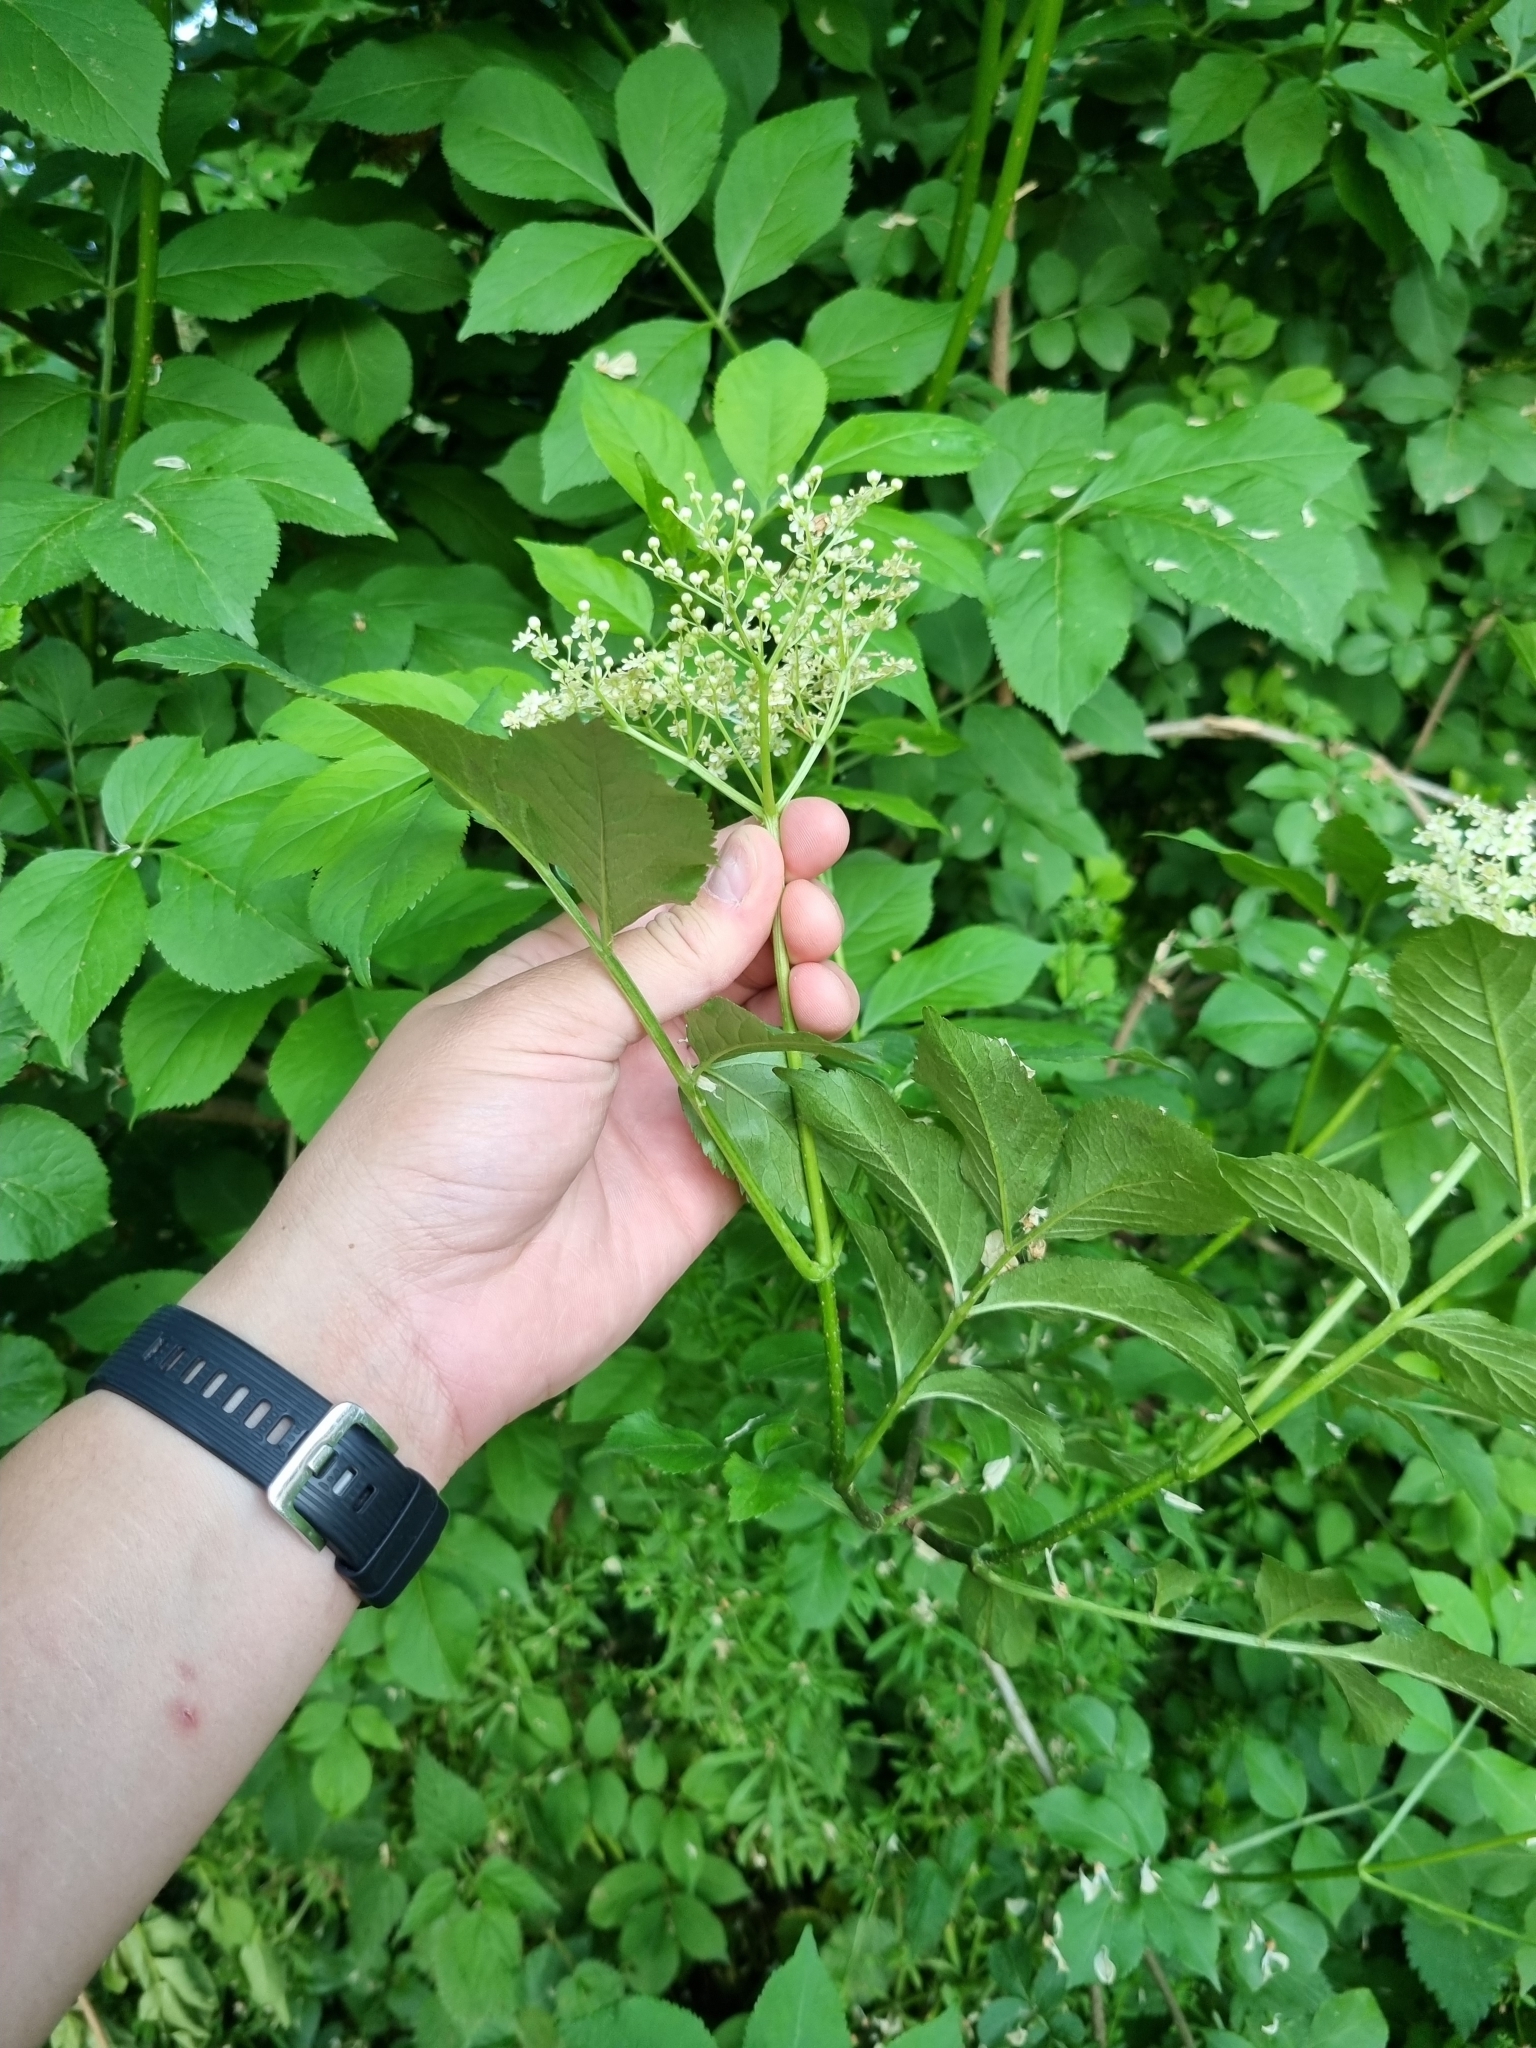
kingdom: Plantae
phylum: Tracheophyta
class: Magnoliopsida
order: Dipsacales
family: Viburnaceae
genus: Sambucus
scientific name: Sambucus nigra
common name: Elder
